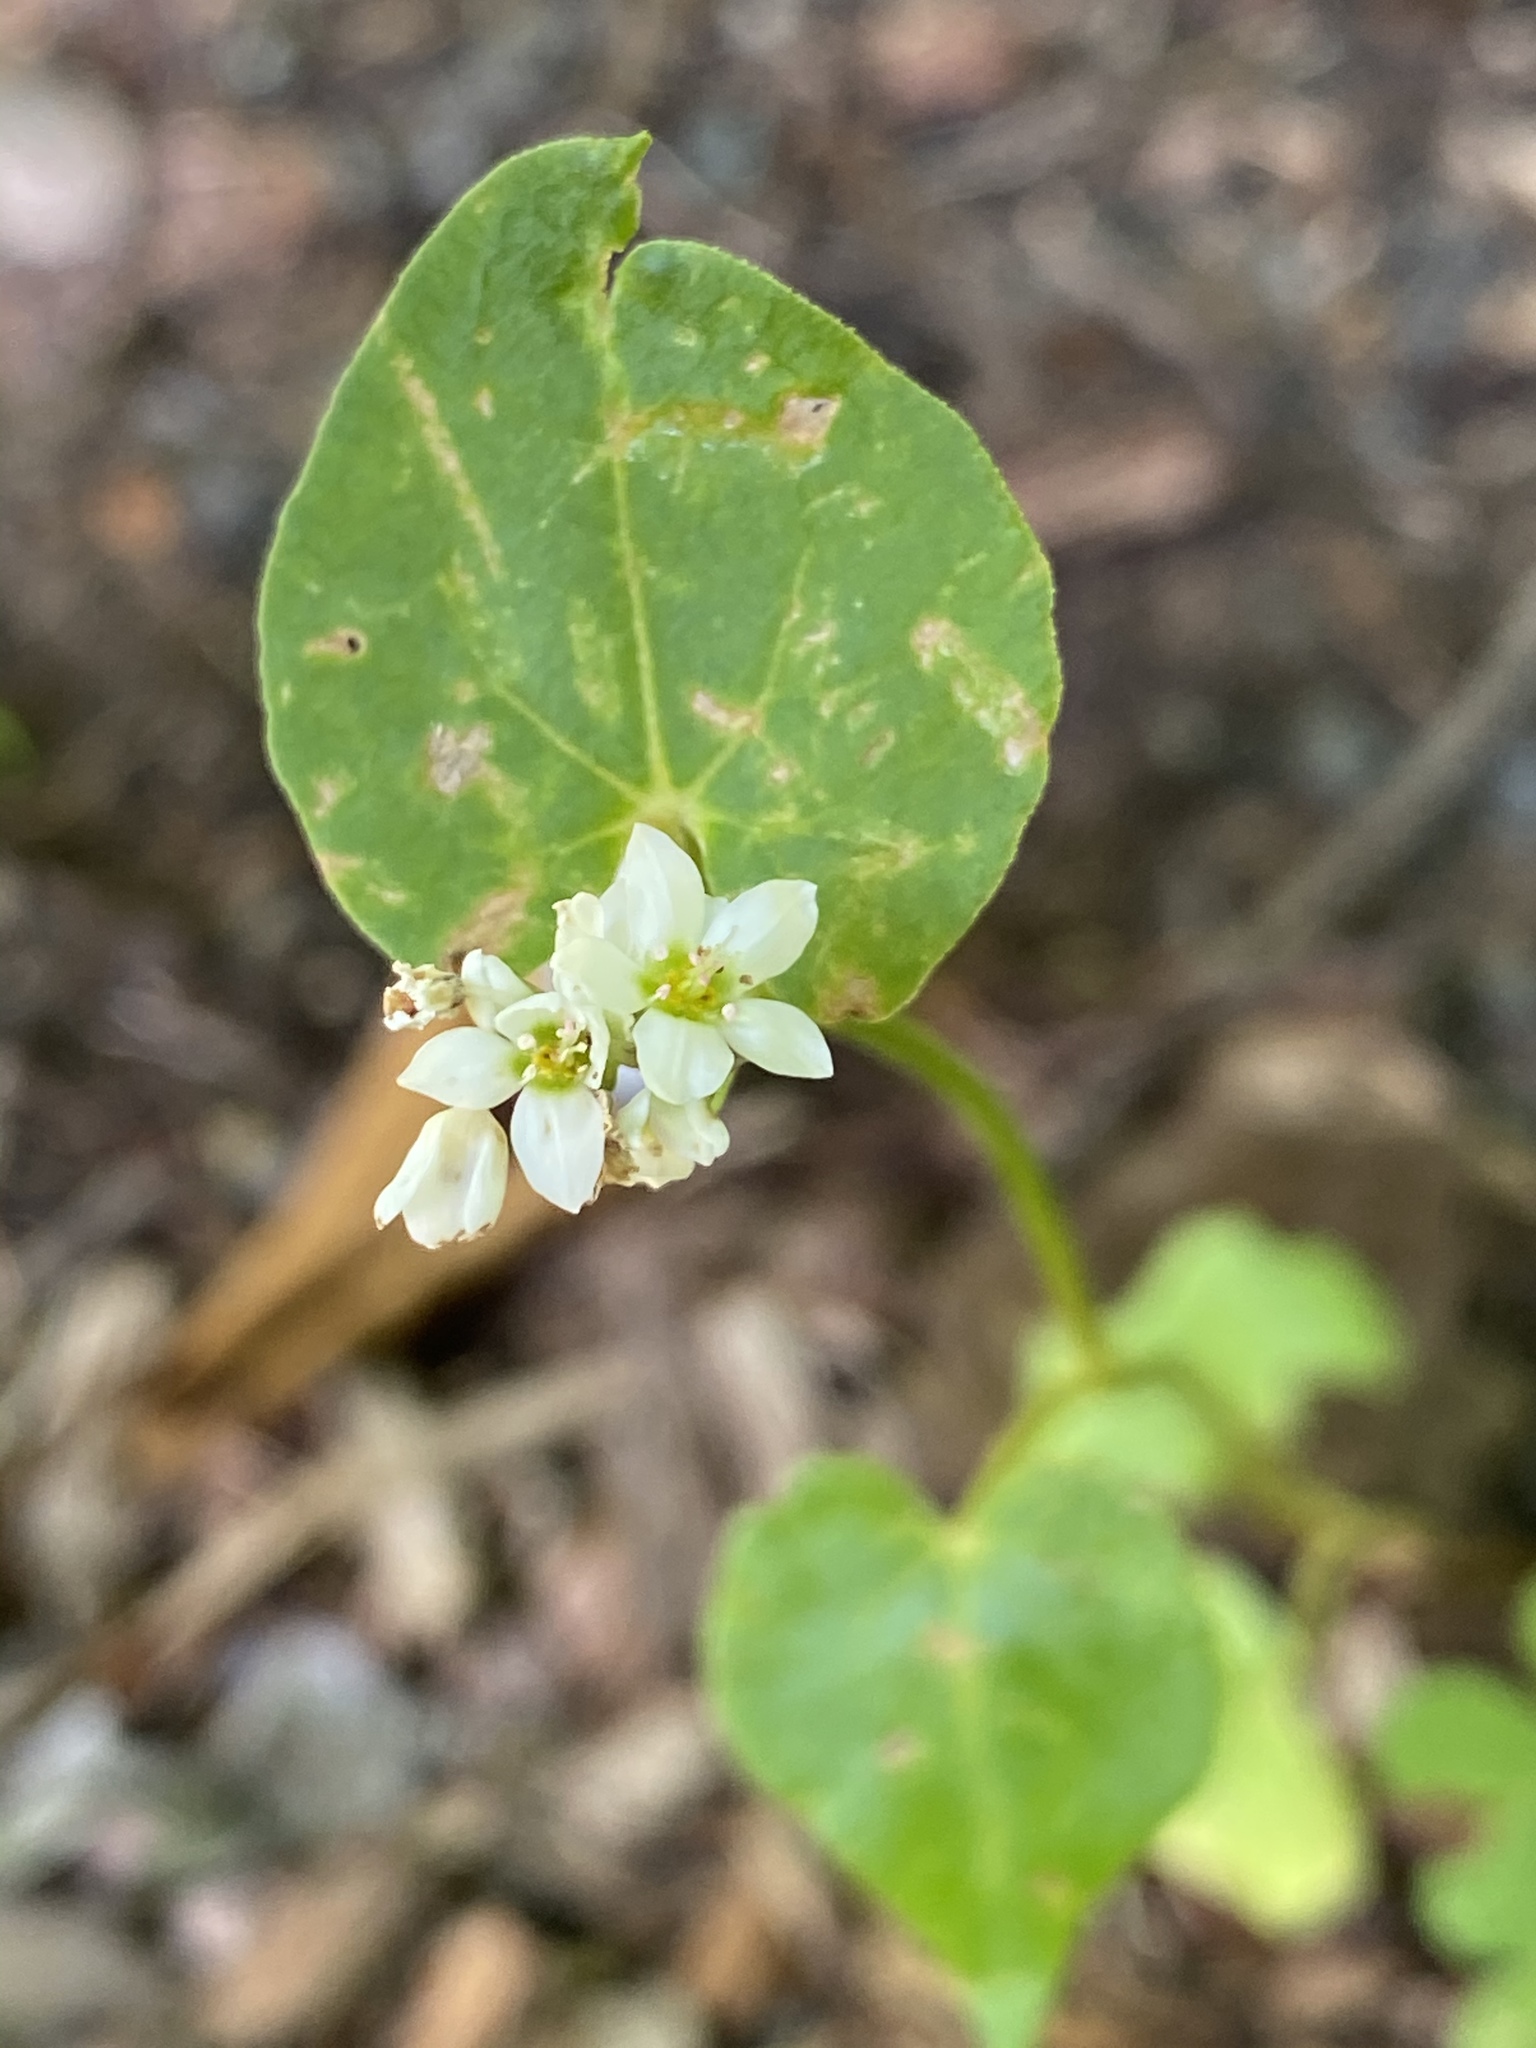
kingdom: Plantae
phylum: Tracheophyta
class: Magnoliopsida
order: Caryophyllales
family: Polygonaceae
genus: Fagopyrum
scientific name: Fagopyrum esculentum
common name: Buckwheat
